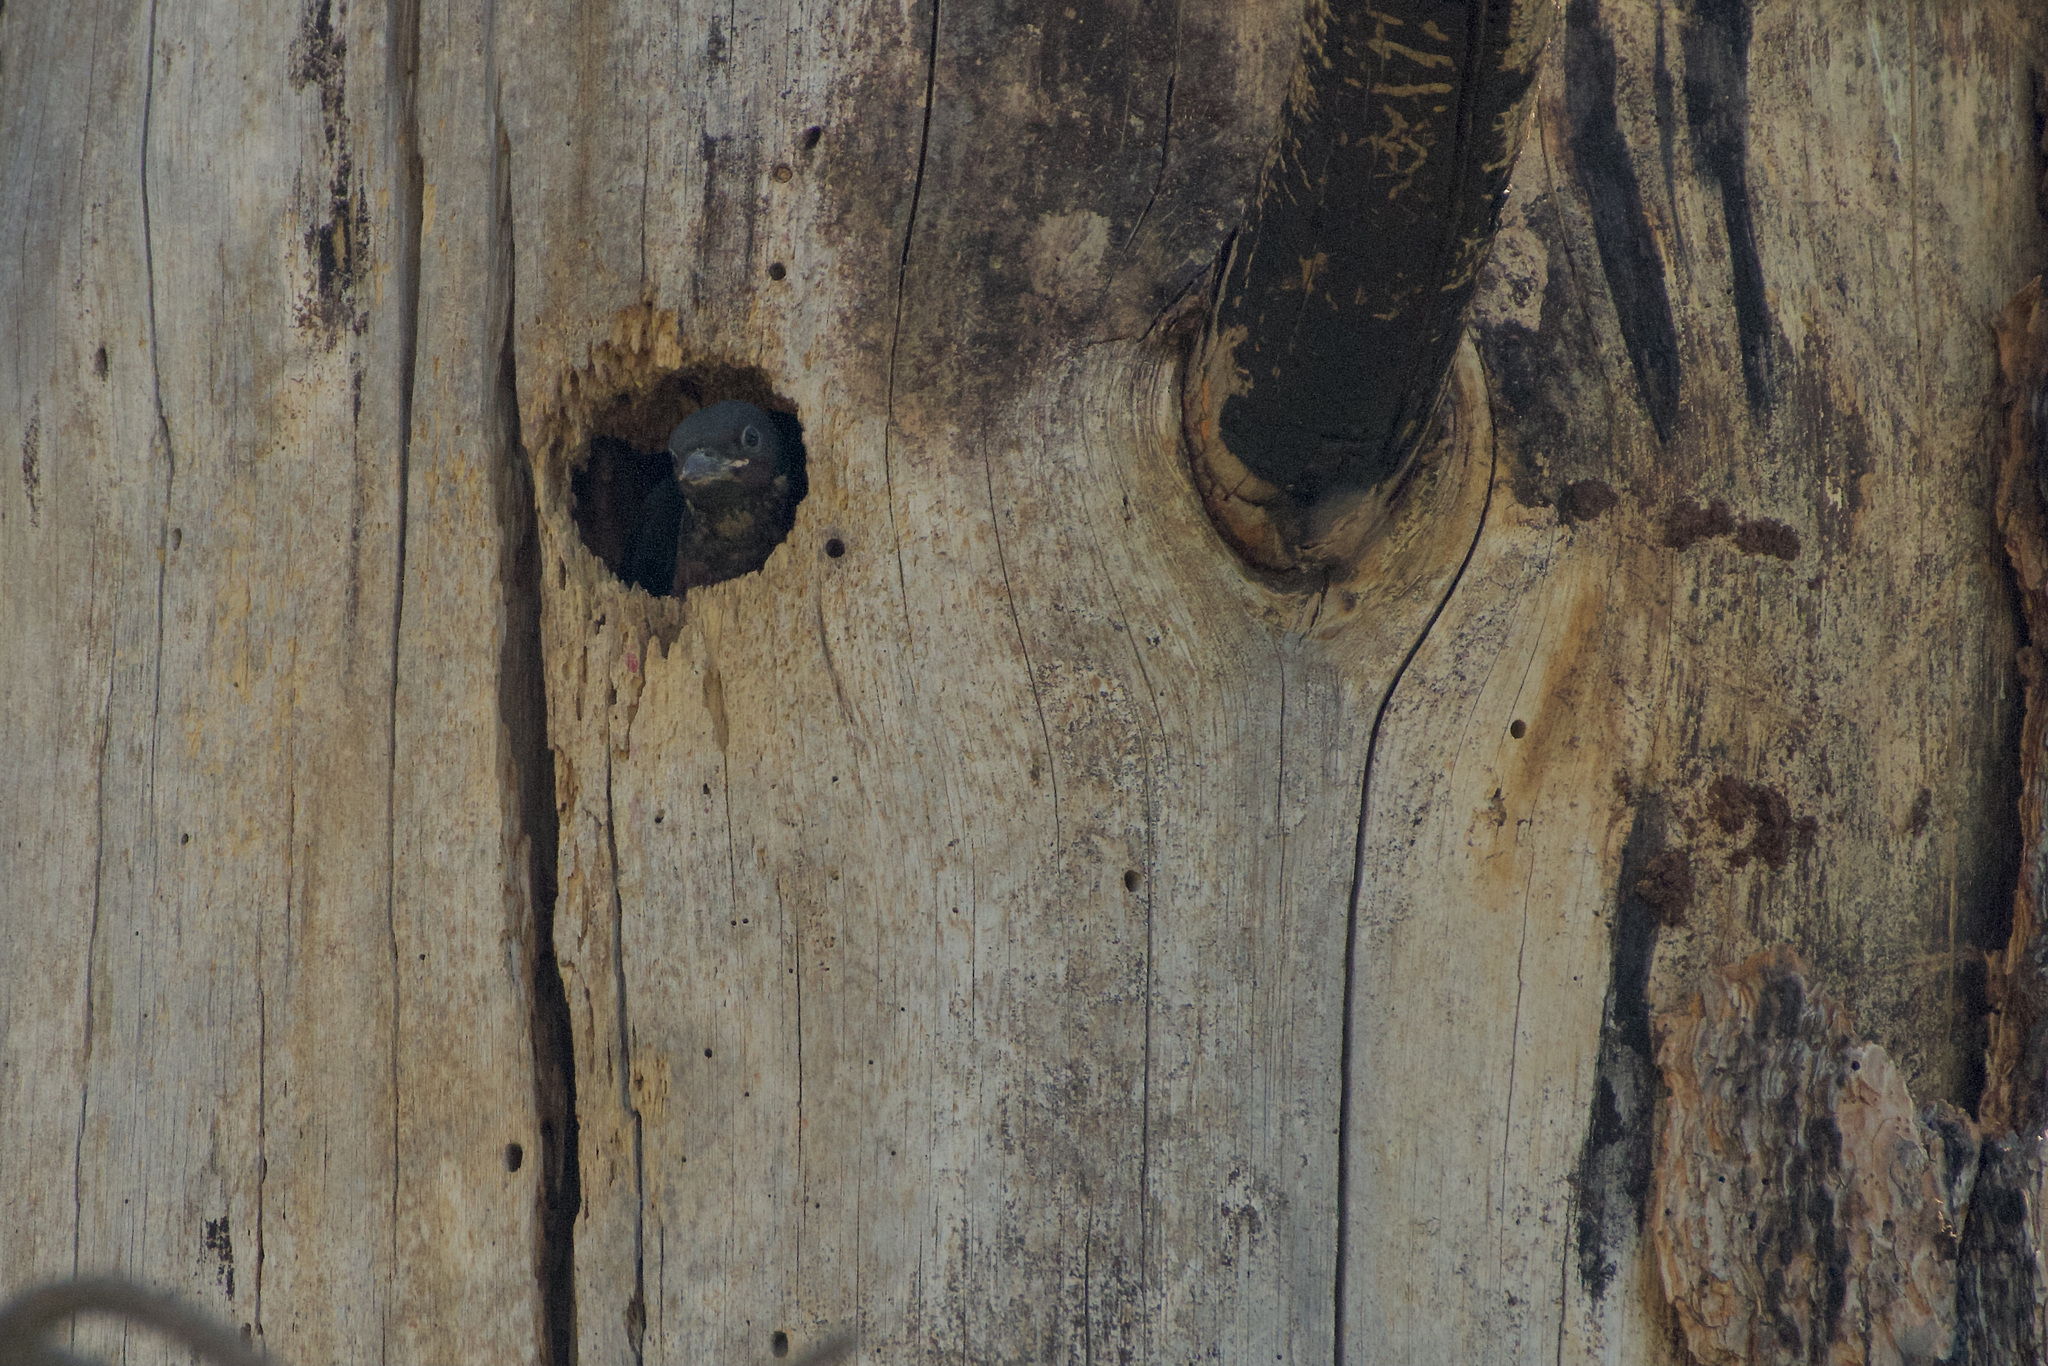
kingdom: Animalia
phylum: Chordata
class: Aves
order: Piciformes
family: Picidae
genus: Melanerpes
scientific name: Melanerpes lewis
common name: Lewis's woodpecker
